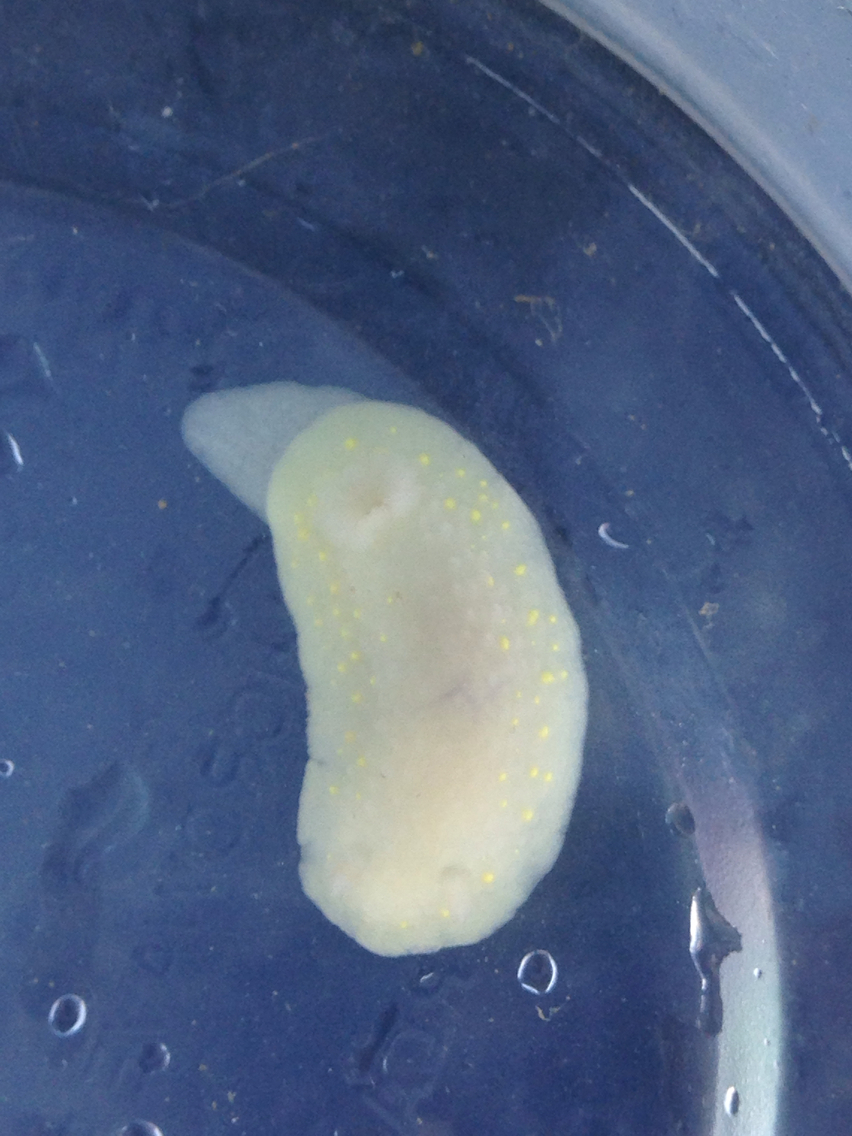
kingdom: Animalia
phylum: Mollusca
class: Gastropoda
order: Nudibranchia
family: Cadlinidae
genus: Cadlina
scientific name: Cadlina modesta
